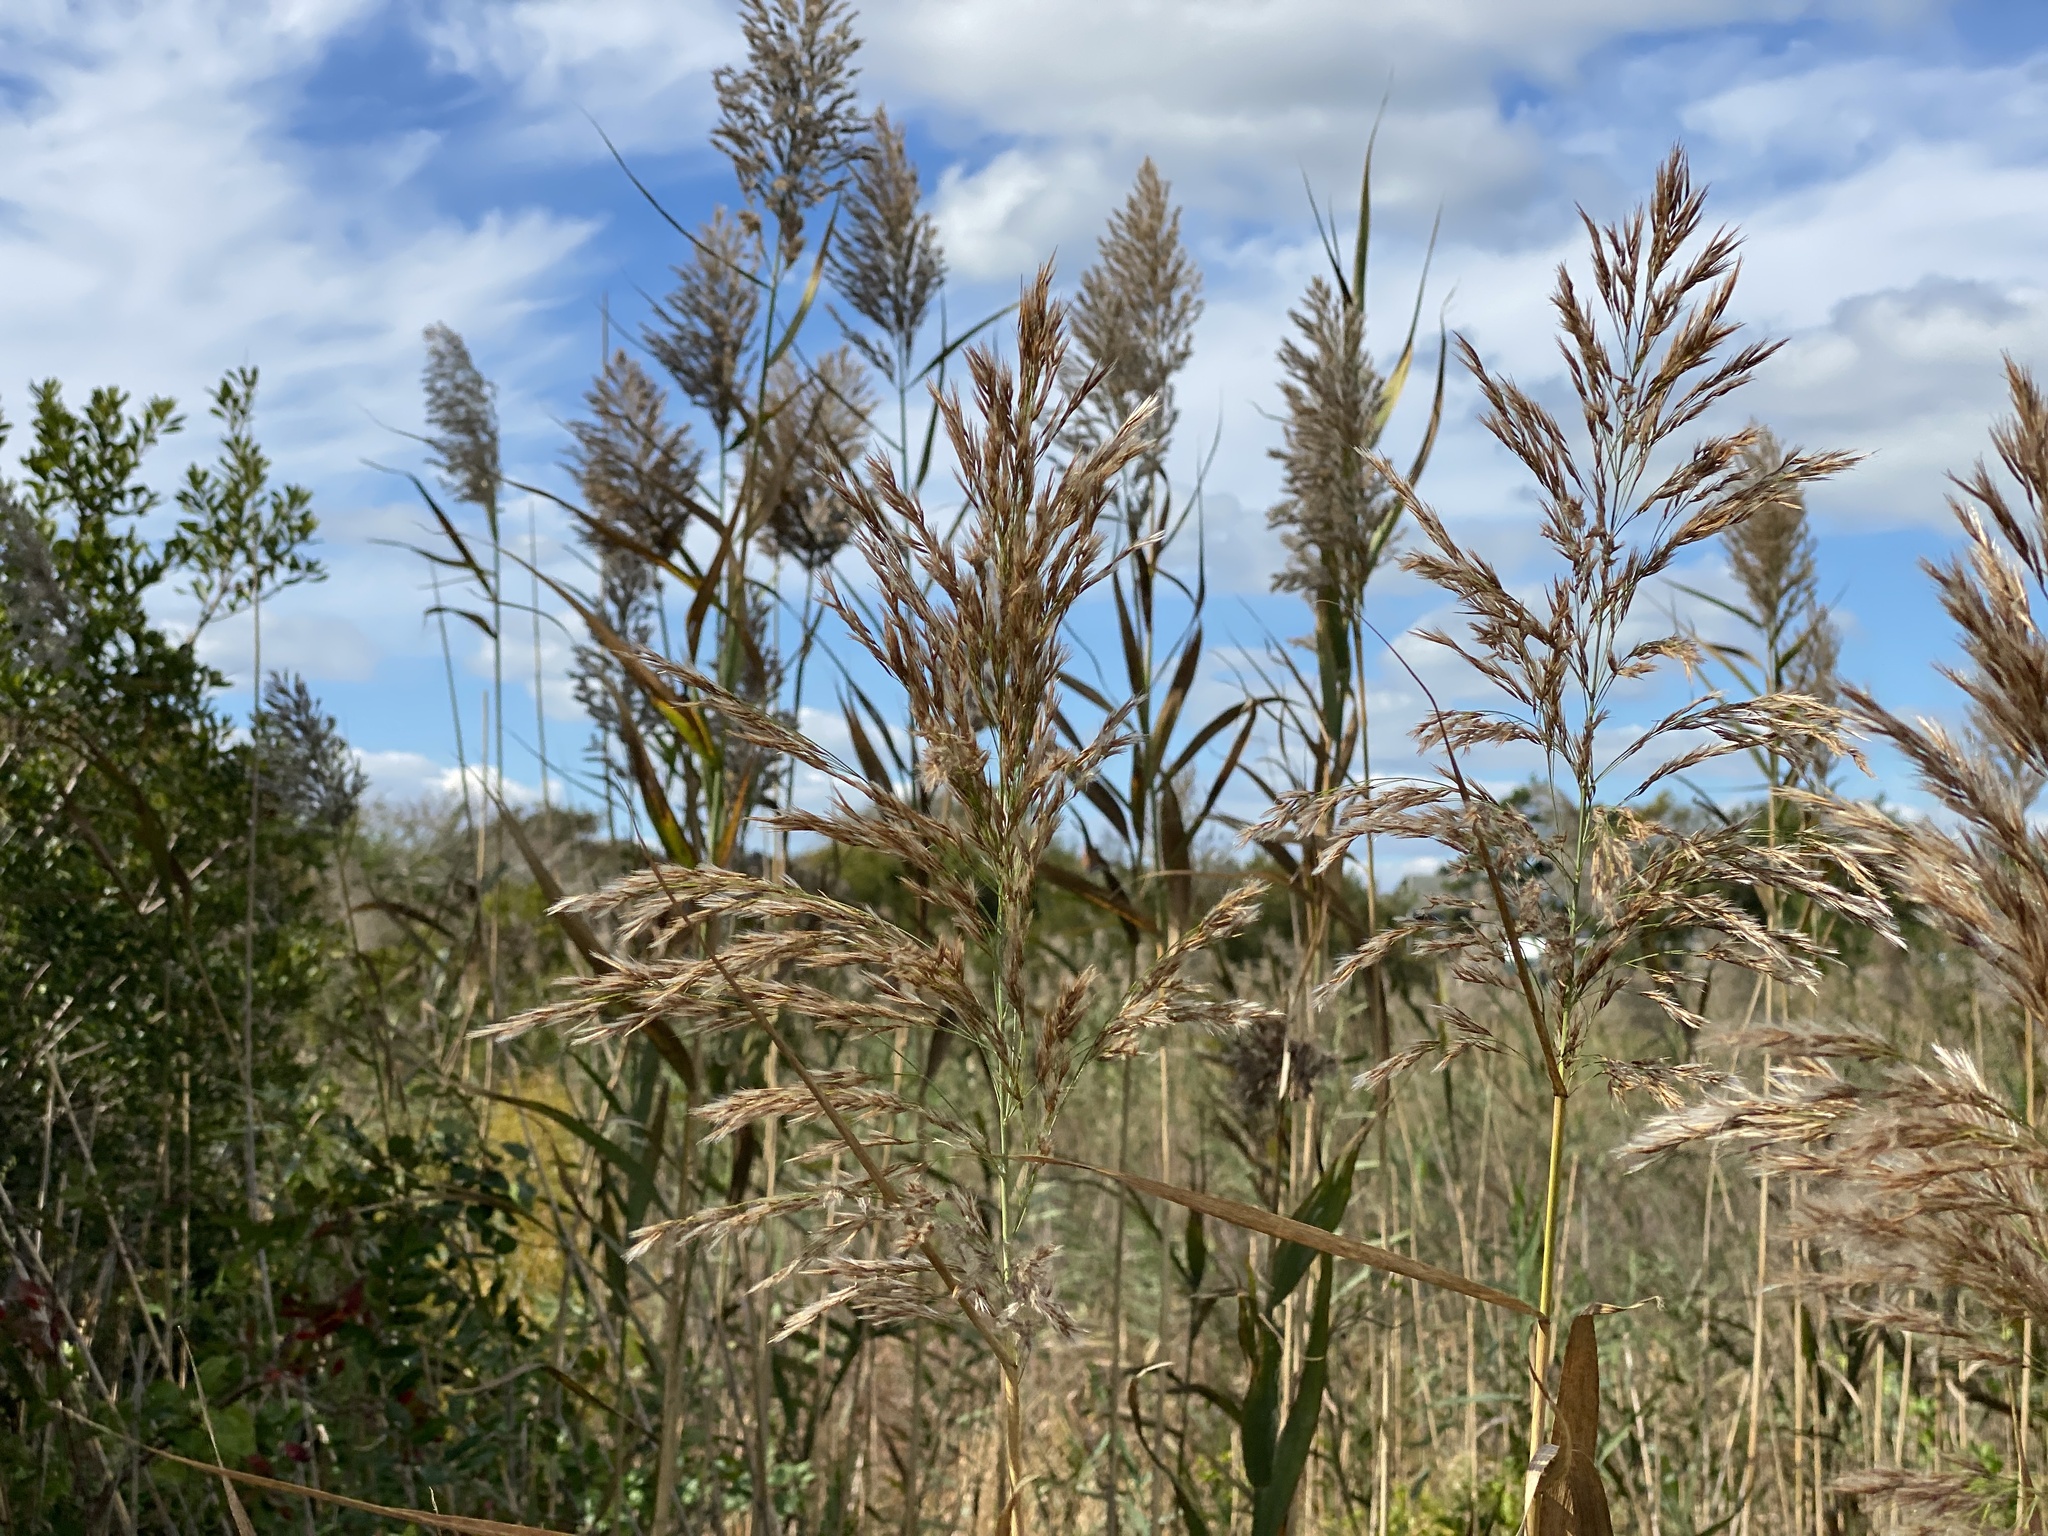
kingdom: Plantae
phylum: Tracheophyta
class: Liliopsida
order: Poales
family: Poaceae
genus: Phragmites
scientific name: Phragmites australis
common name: Common reed
